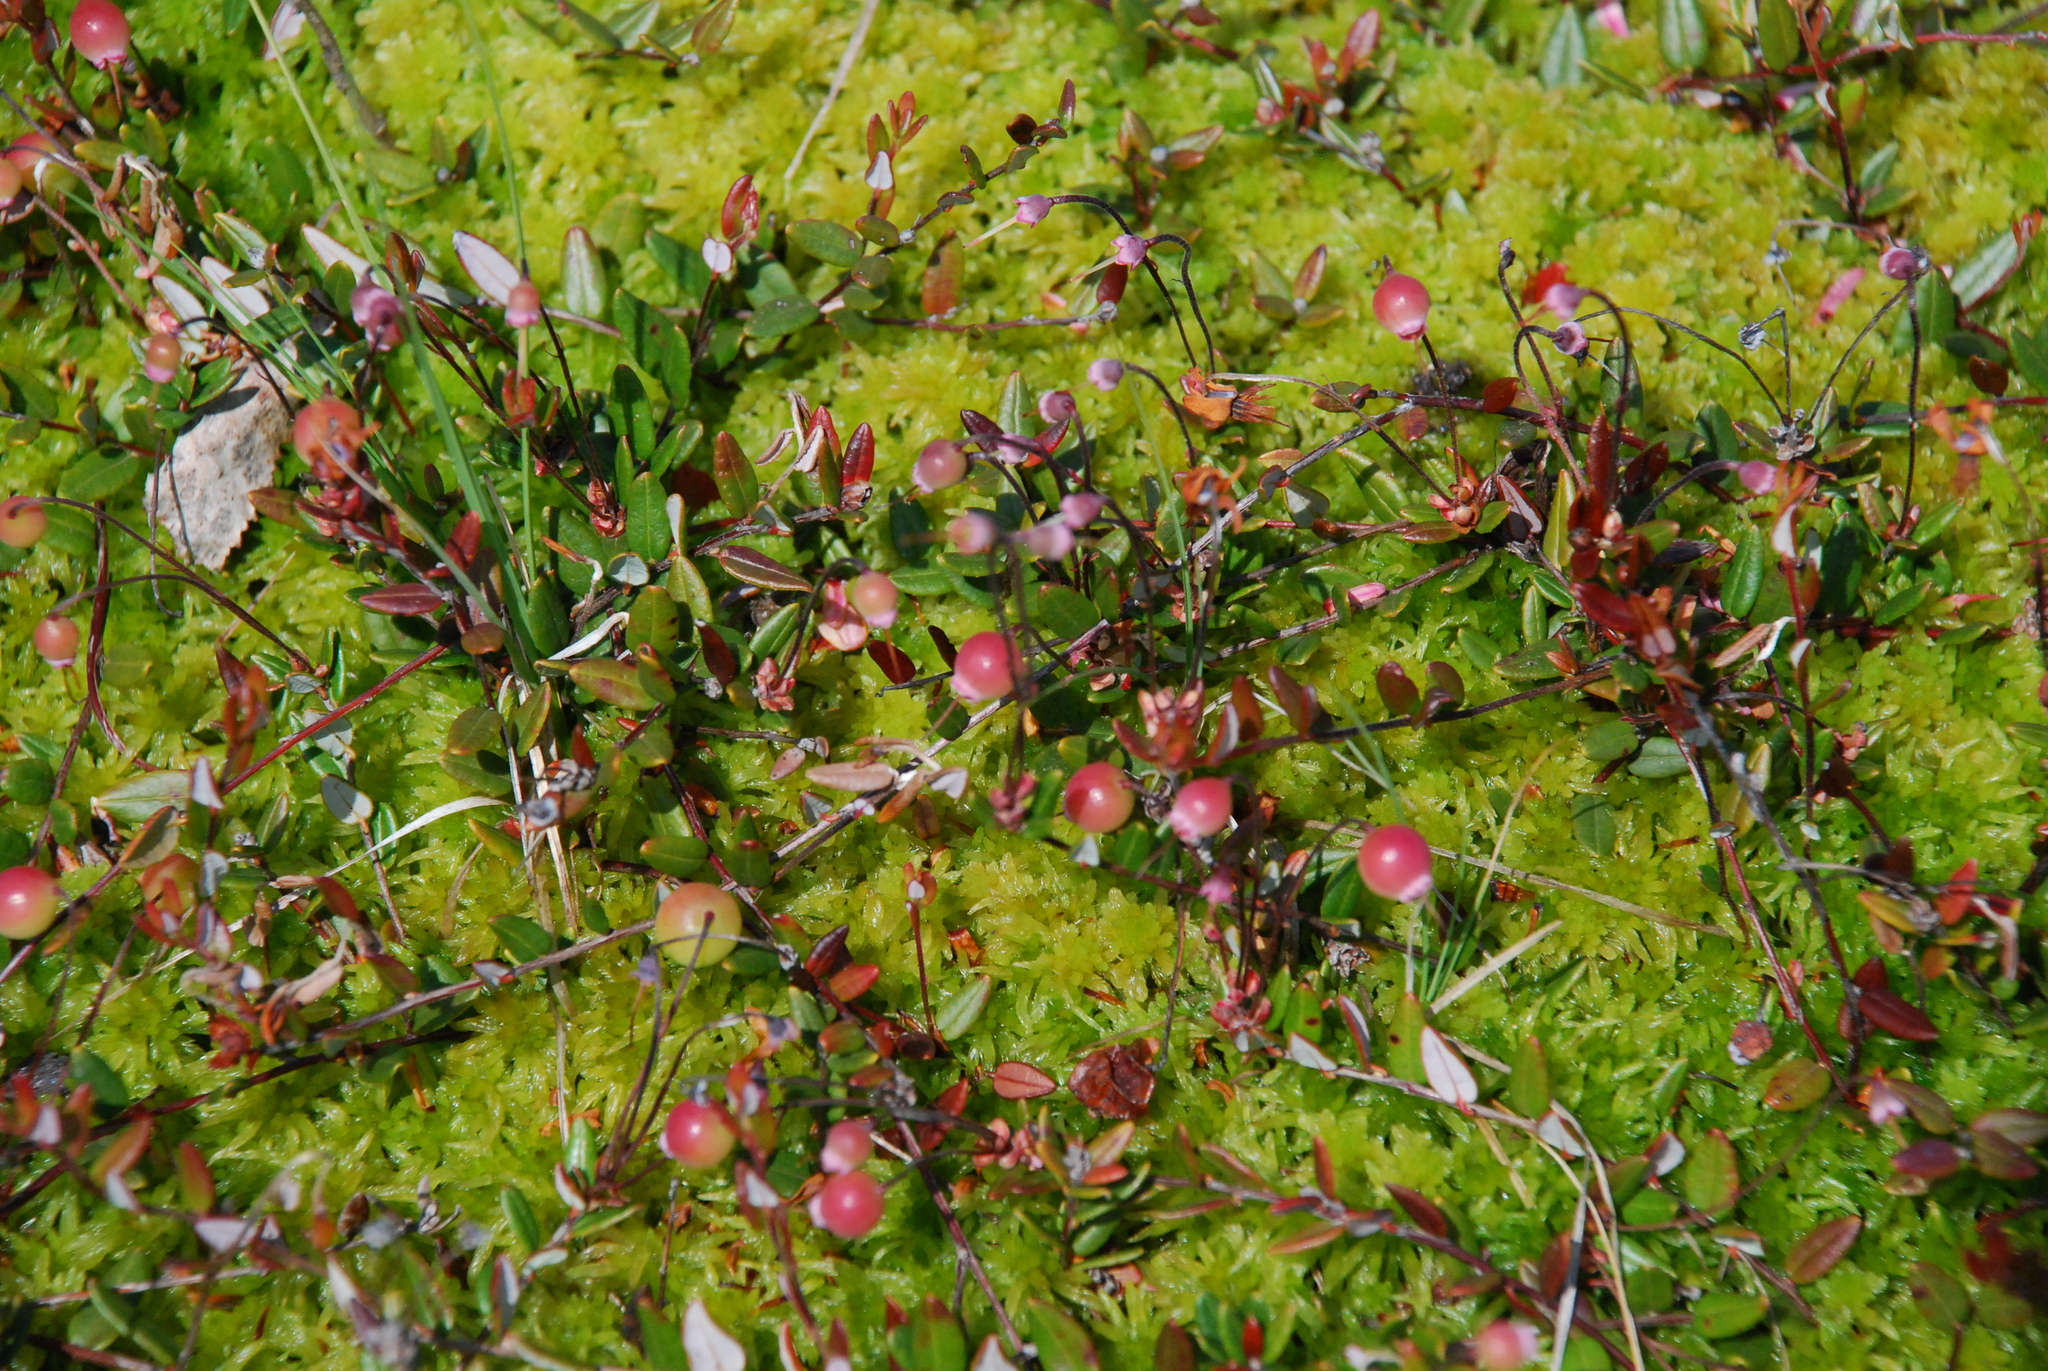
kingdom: Plantae
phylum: Tracheophyta
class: Magnoliopsida
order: Ericales
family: Ericaceae
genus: Vaccinium
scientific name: Vaccinium oxycoccos
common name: Cranberry
